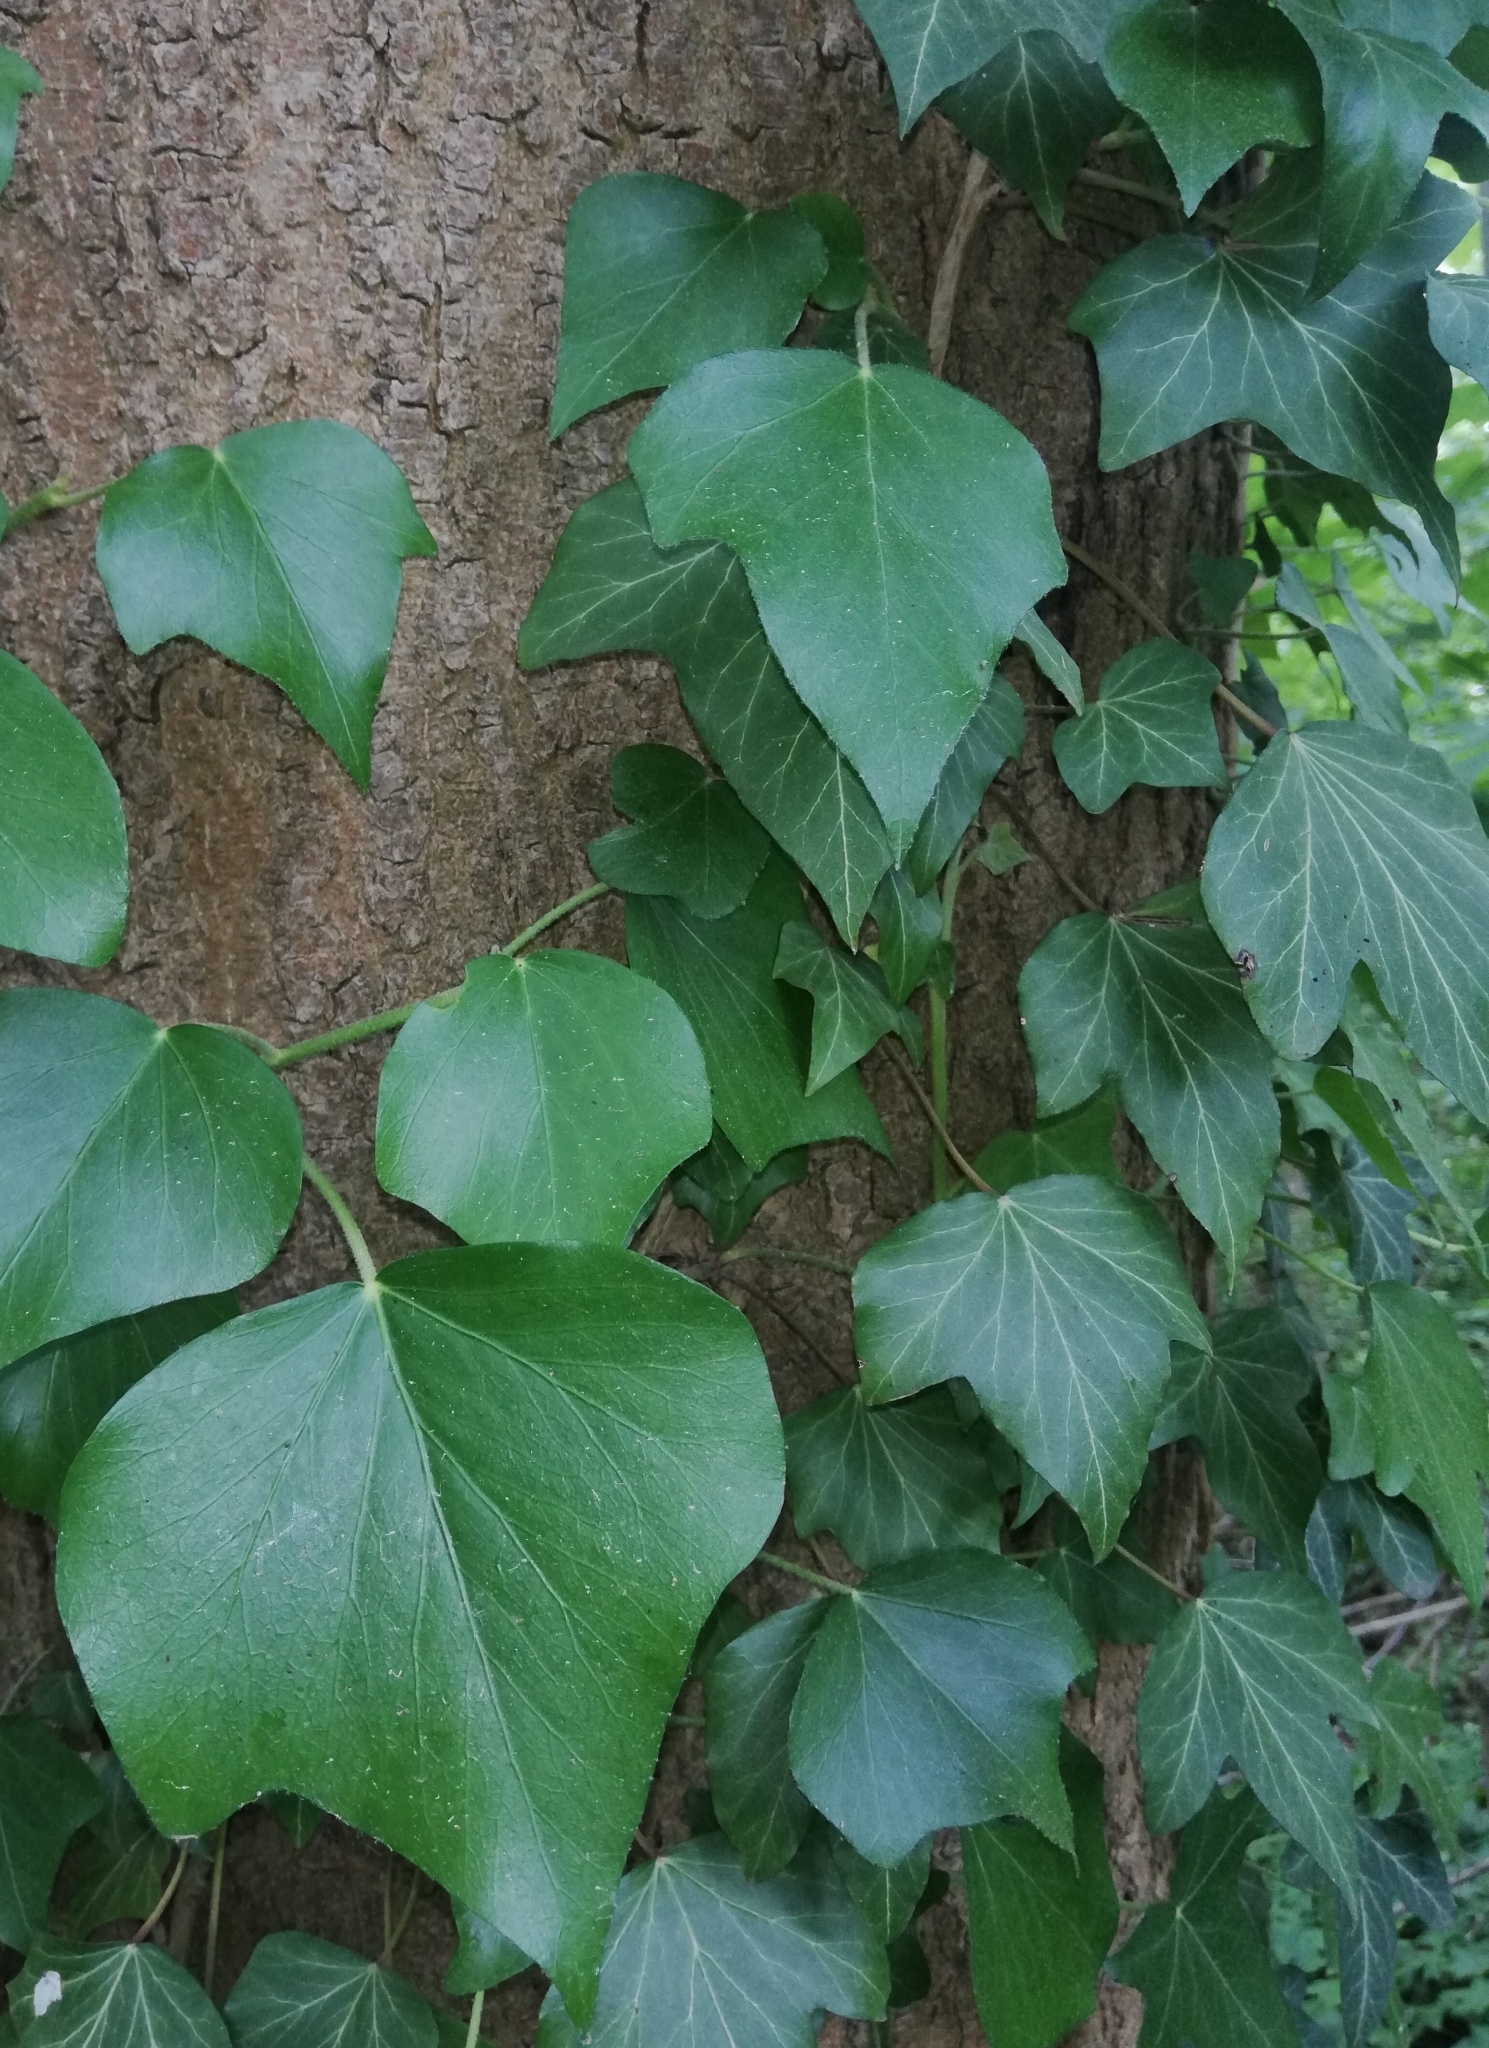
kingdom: Plantae
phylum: Tracheophyta
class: Magnoliopsida
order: Apiales
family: Araliaceae
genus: Hedera
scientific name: Hedera helix
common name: Ivy
